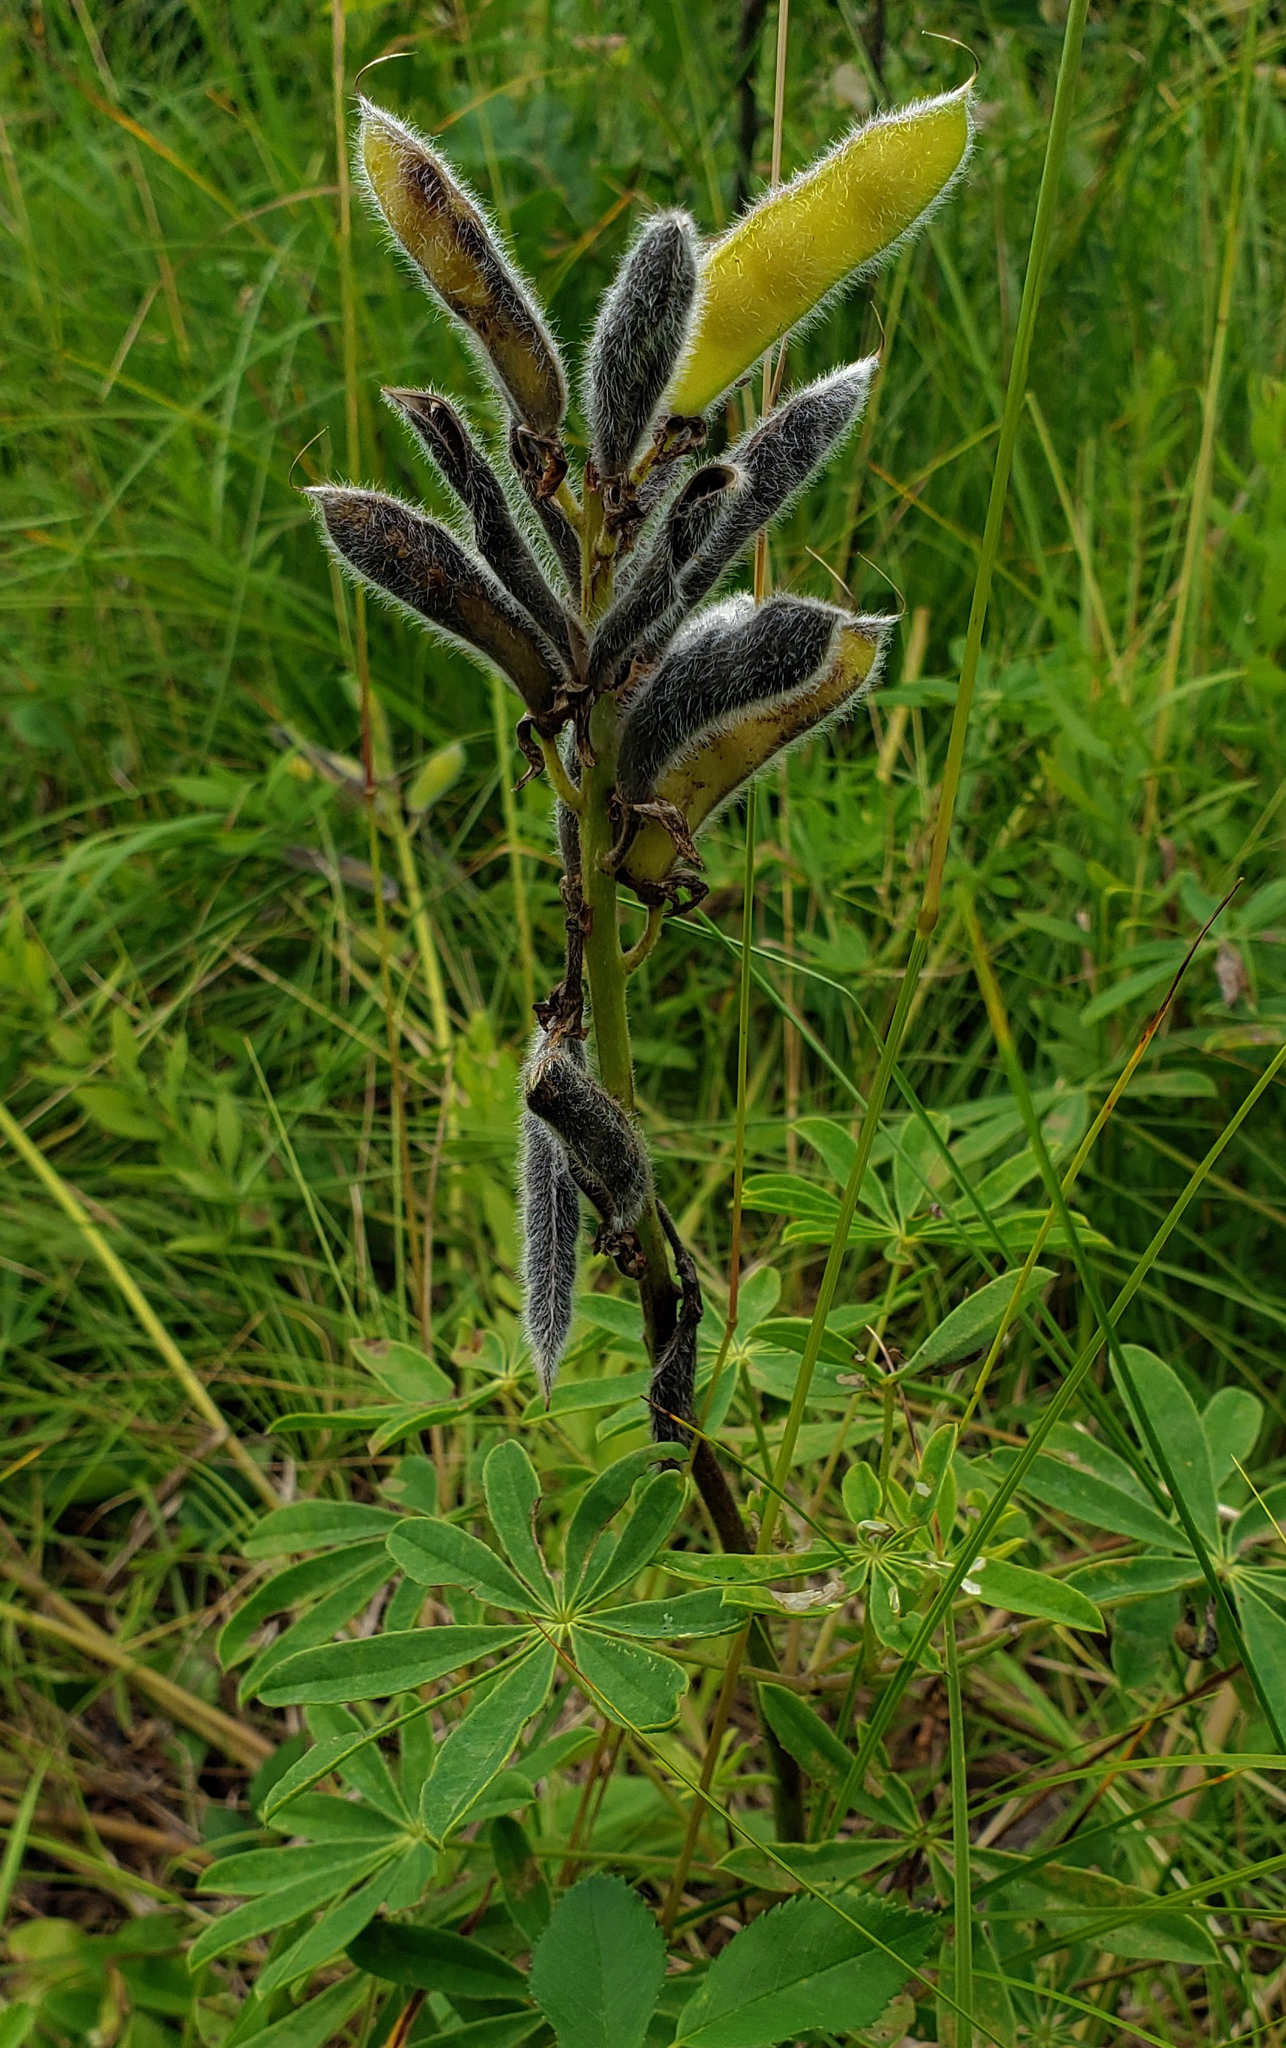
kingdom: Plantae
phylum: Tracheophyta
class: Magnoliopsida
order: Fabales
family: Fabaceae
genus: Lupinus
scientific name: Lupinus perennis
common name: Sundial lupine
